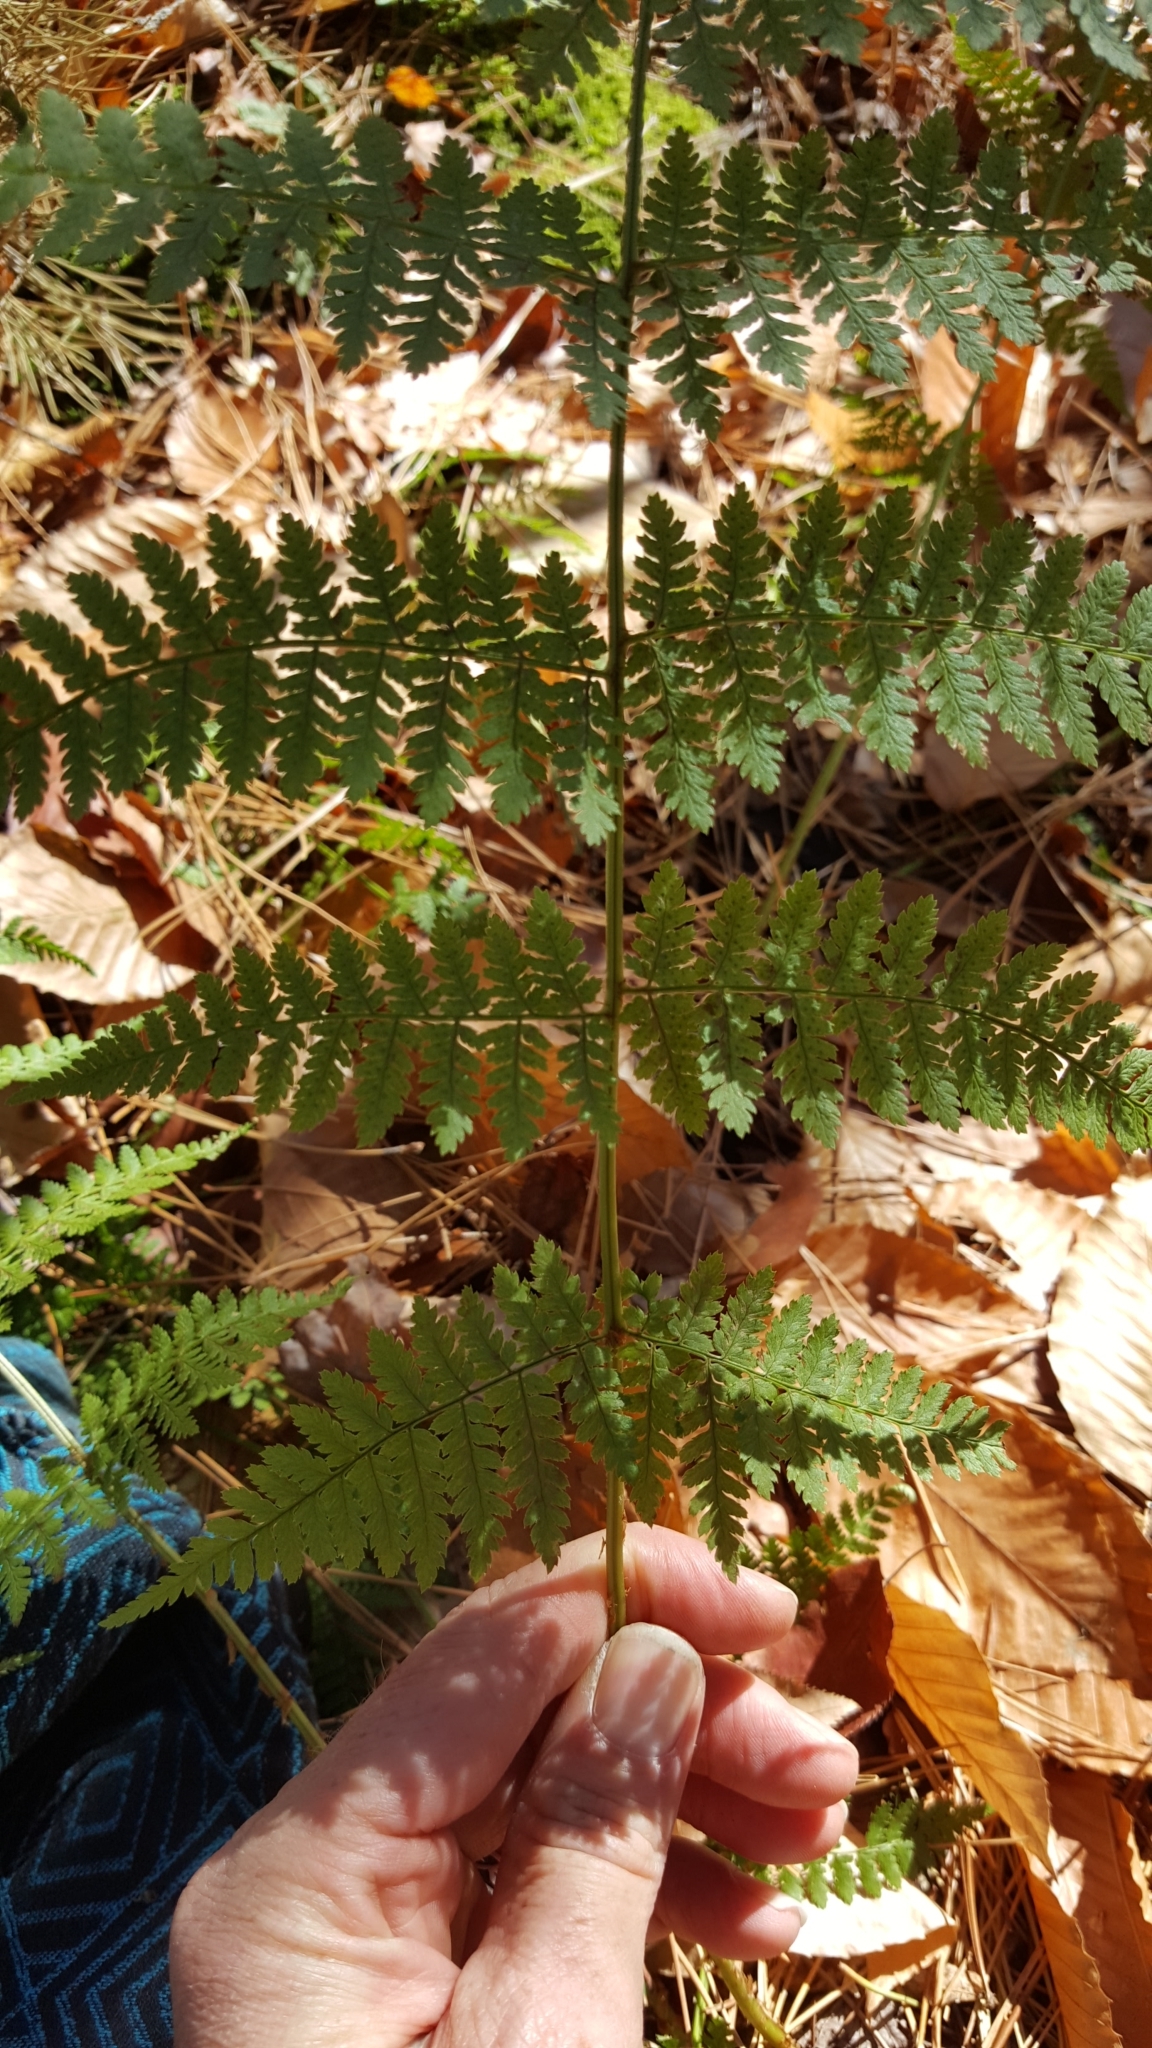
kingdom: Plantae
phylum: Tracheophyta
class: Polypodiopsida
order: Polypodiales
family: Dryopteridaceae
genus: Dryopteris
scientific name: Dryopteris intermedia
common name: Evergreen wood fern
